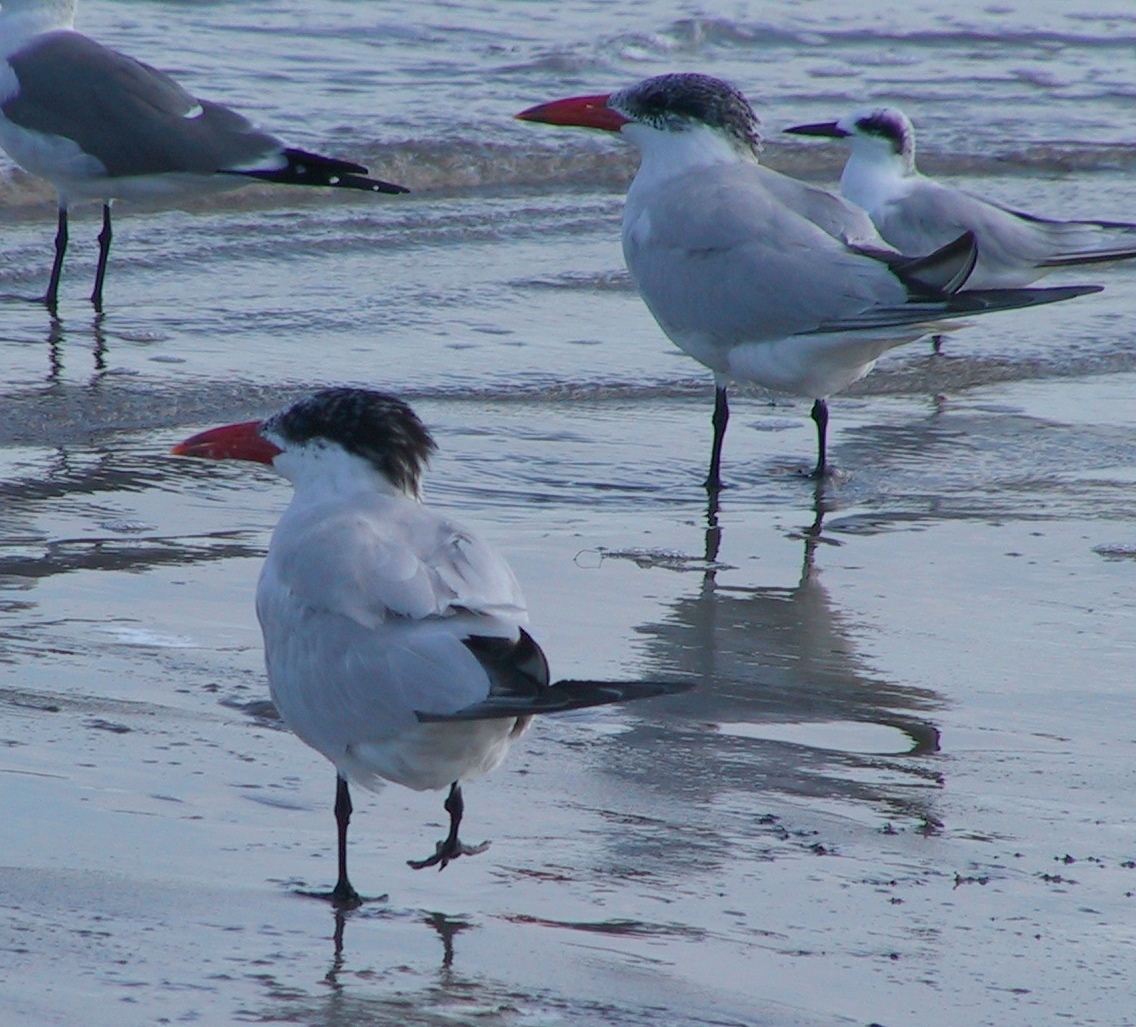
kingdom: Animalia
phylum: Chordata
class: Aves
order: Charadriiformes
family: Laridae
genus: Hydroprogne
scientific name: Hydroprogne caspia
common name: Caspian tern
